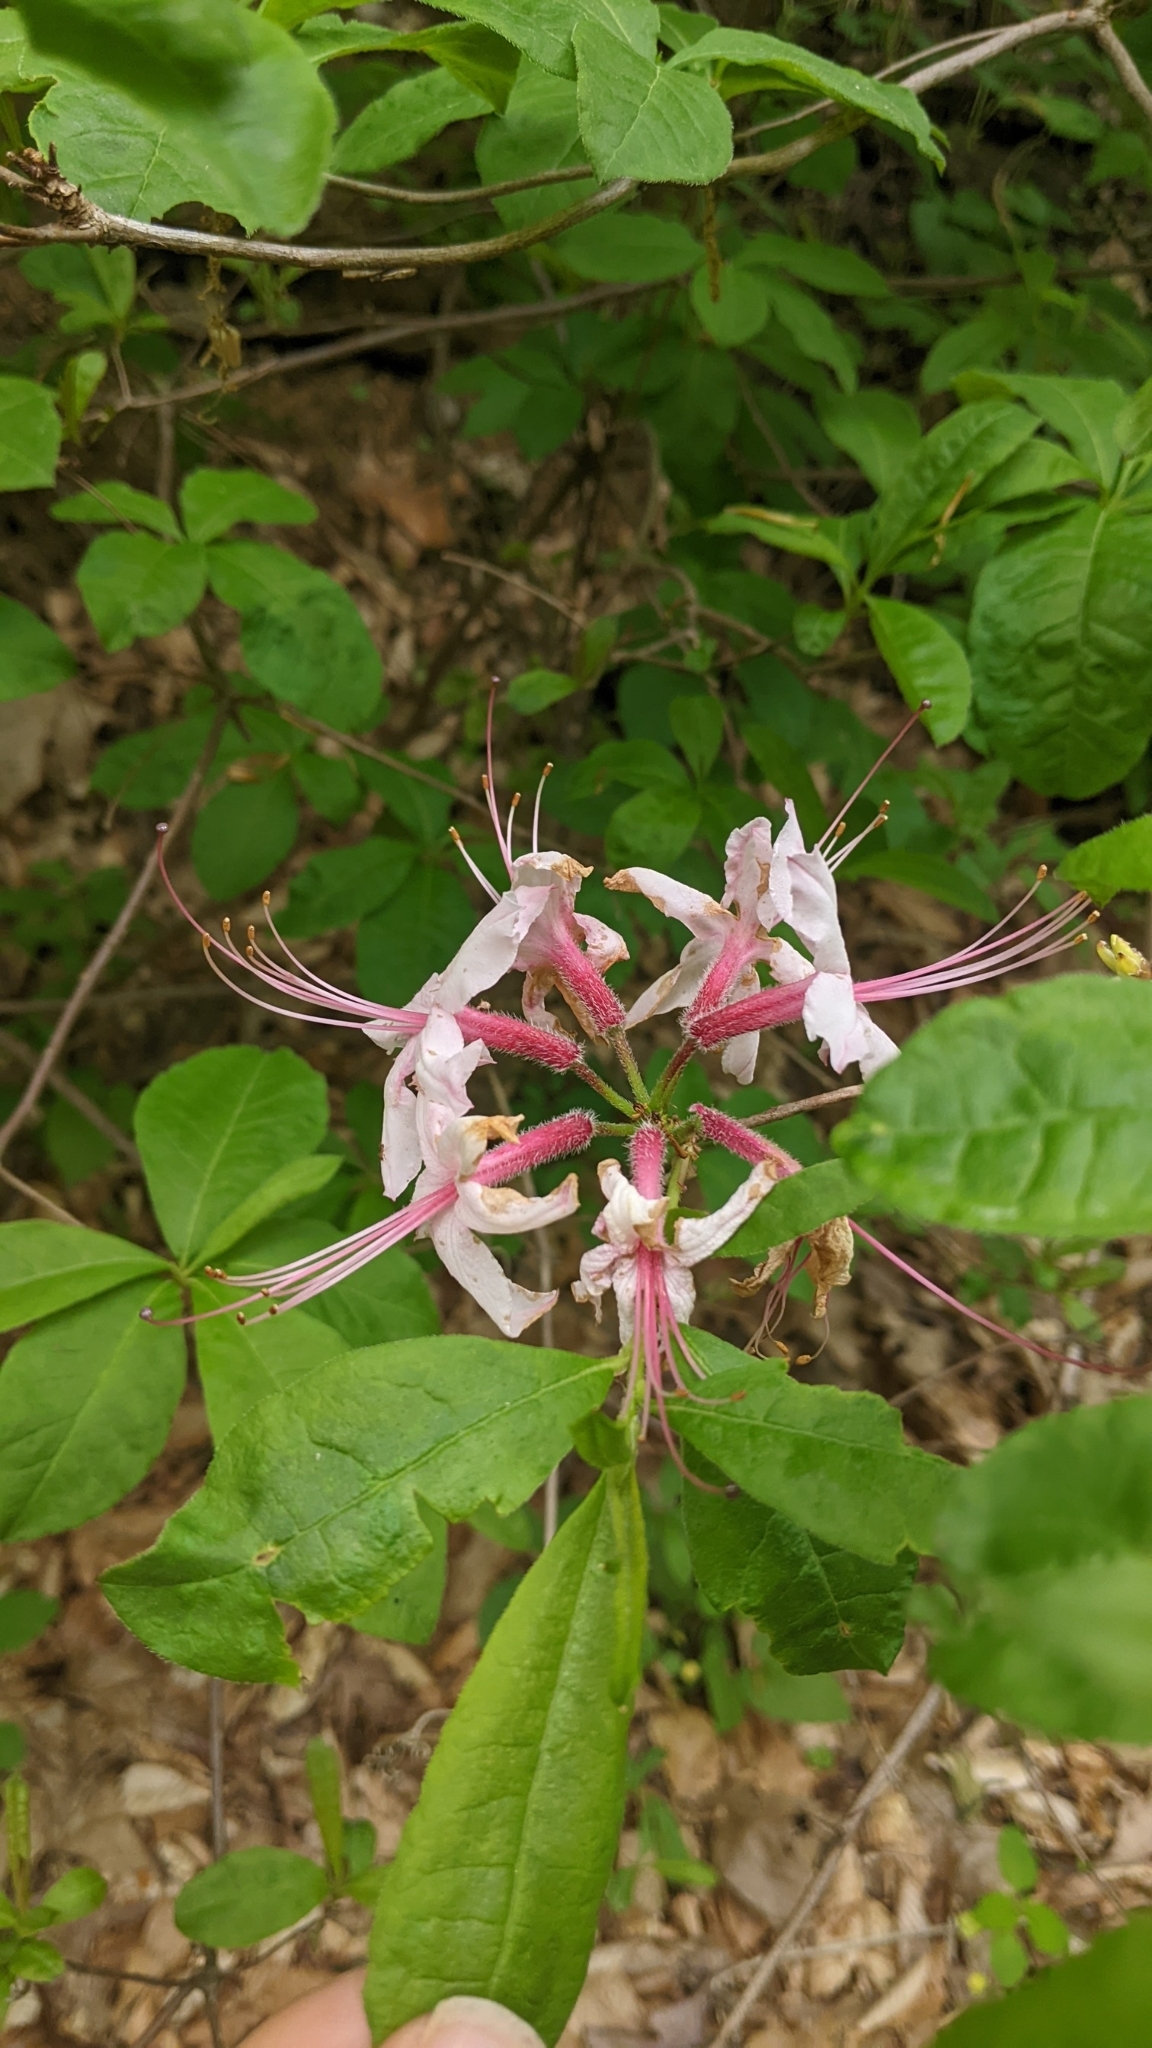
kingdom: Plantae
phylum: Tracheophyta
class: Magnoliopsida
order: Ericales
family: Ericaceae
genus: Rhododendron
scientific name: Rhododendron periclymenoides
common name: Election-pink
